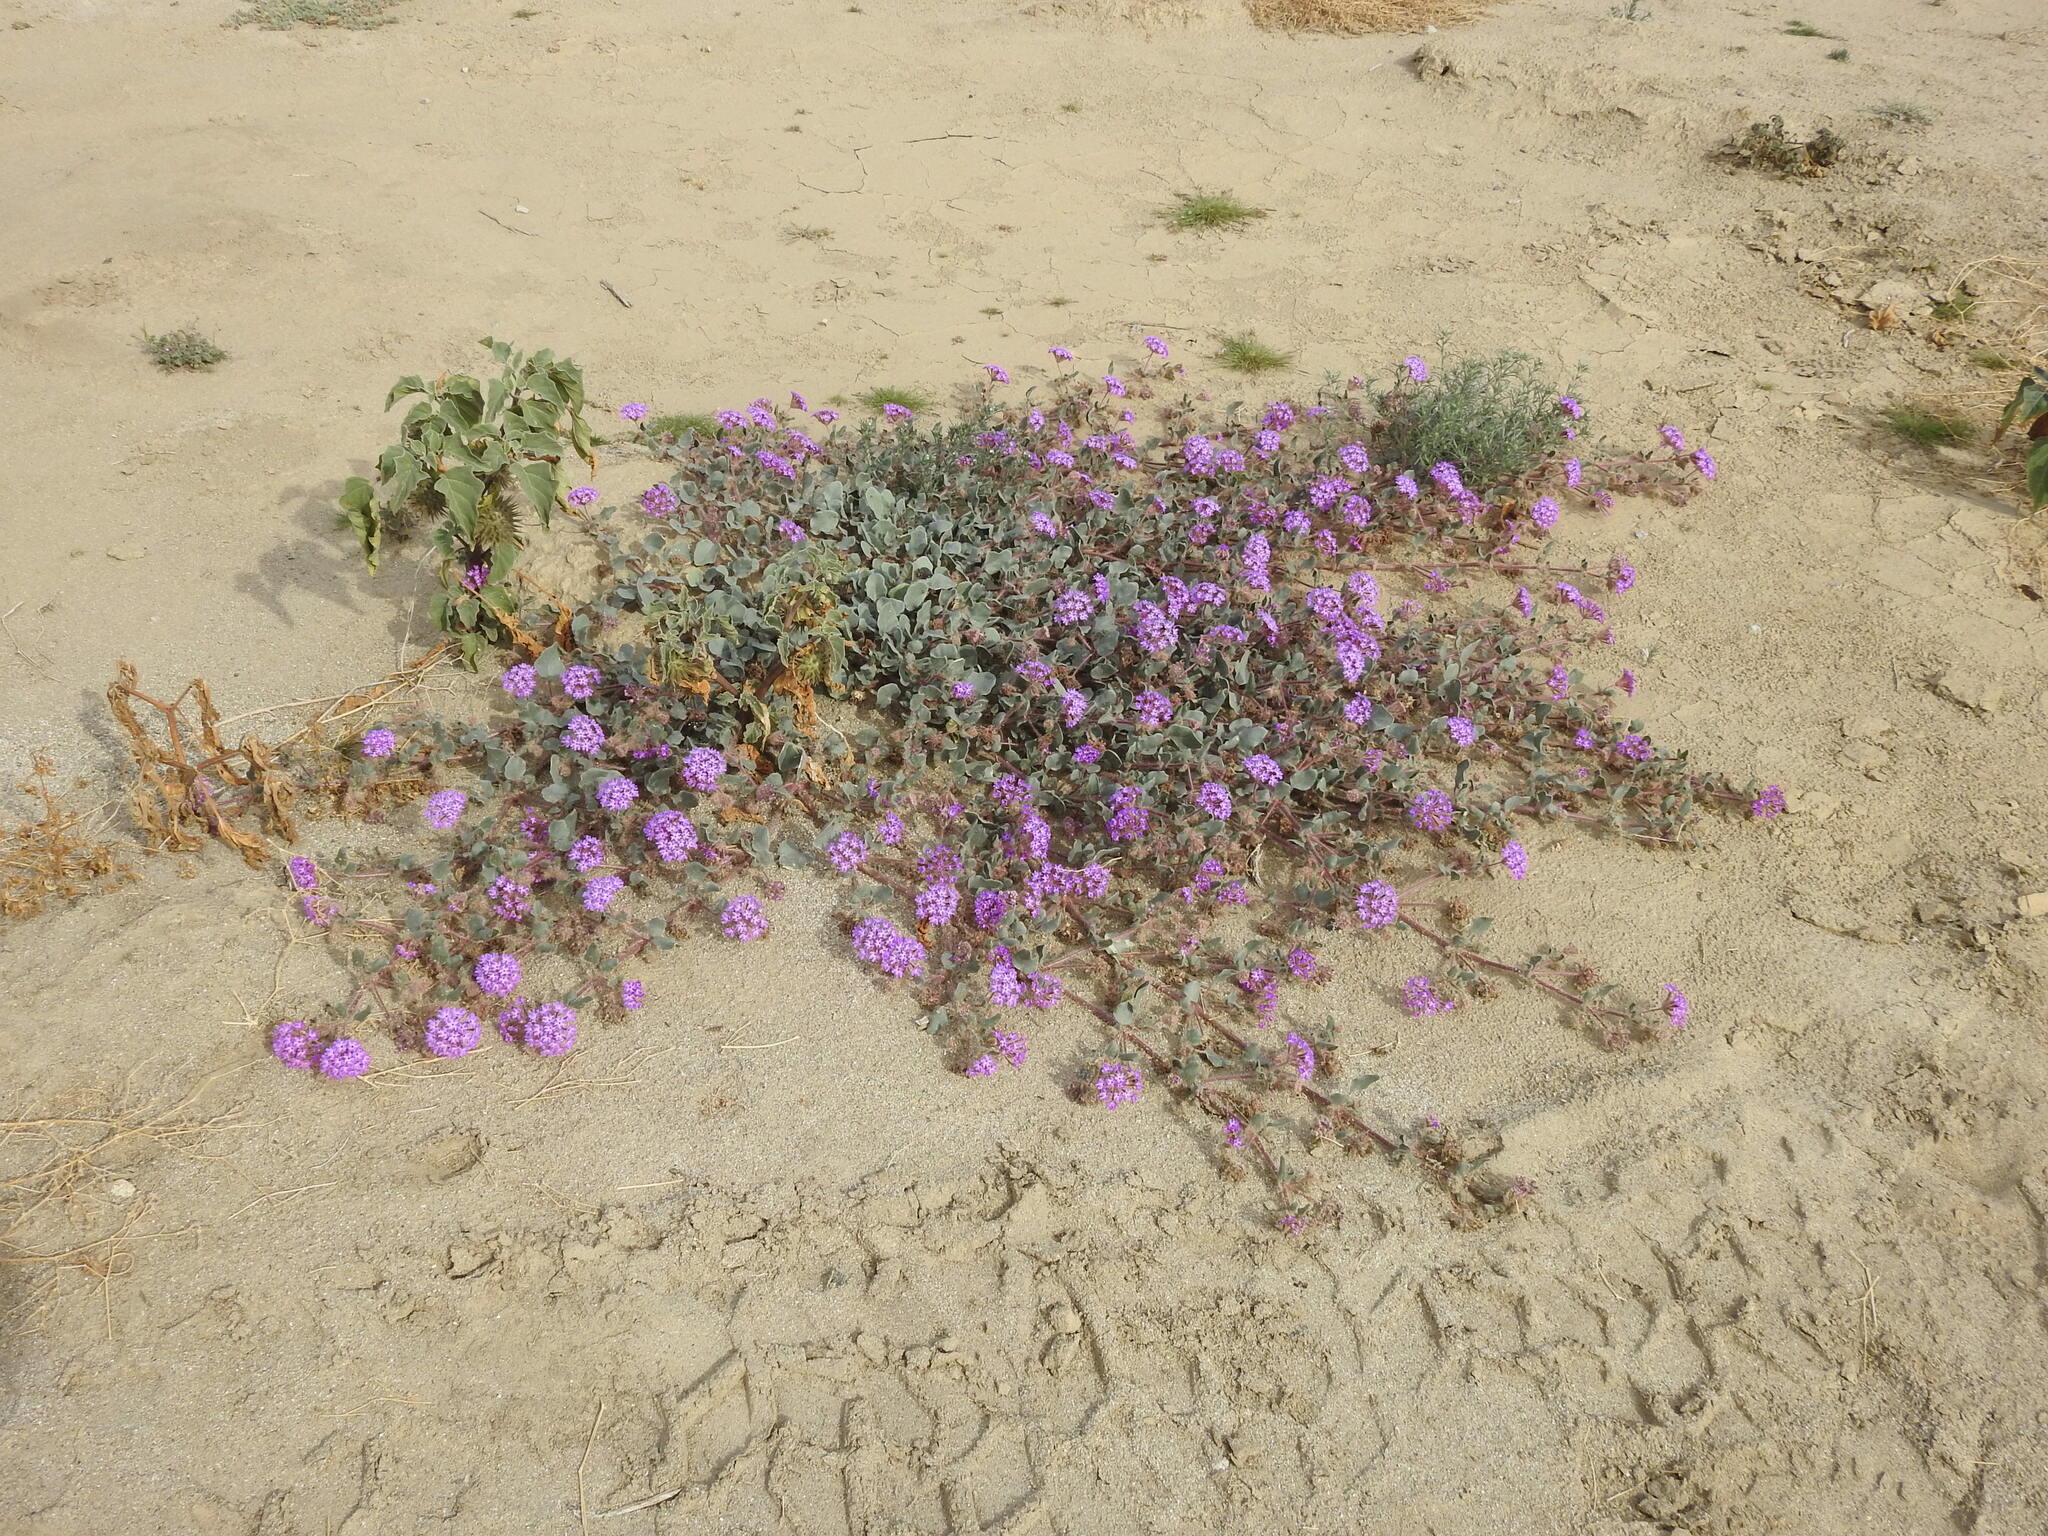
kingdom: Plantae
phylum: Tracheophyta
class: Magnoliopsida
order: Caryophyllales
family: Nyctaginaceae
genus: Abronia
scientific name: Abronia villosa
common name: Desert sand-verbena
